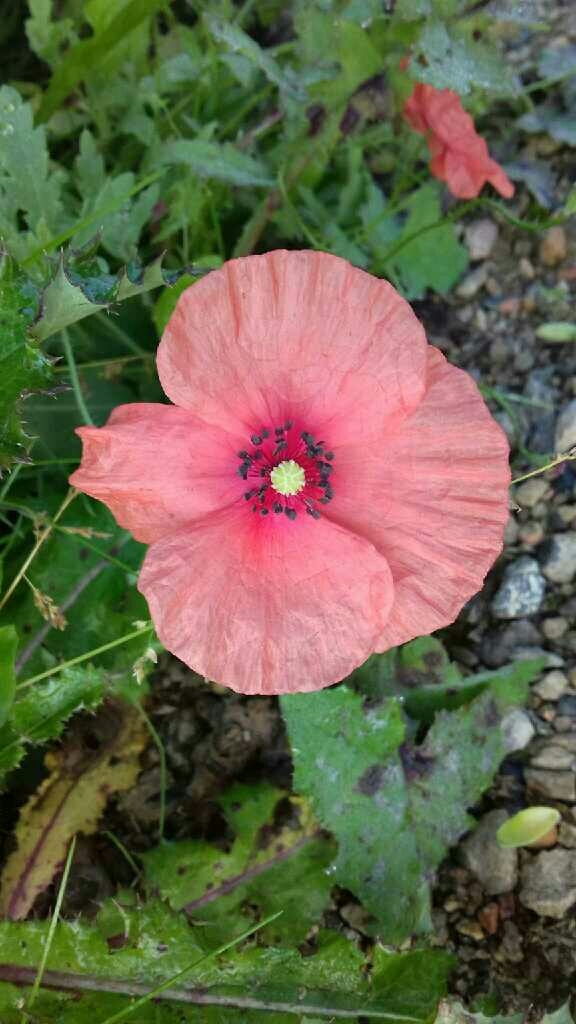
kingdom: Plantae
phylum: Tracheophyta
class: Magnoliopsida
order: Ranunculales
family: Papaveraceae
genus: Papaver
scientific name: Papaver rhoeas
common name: Corn poppy
